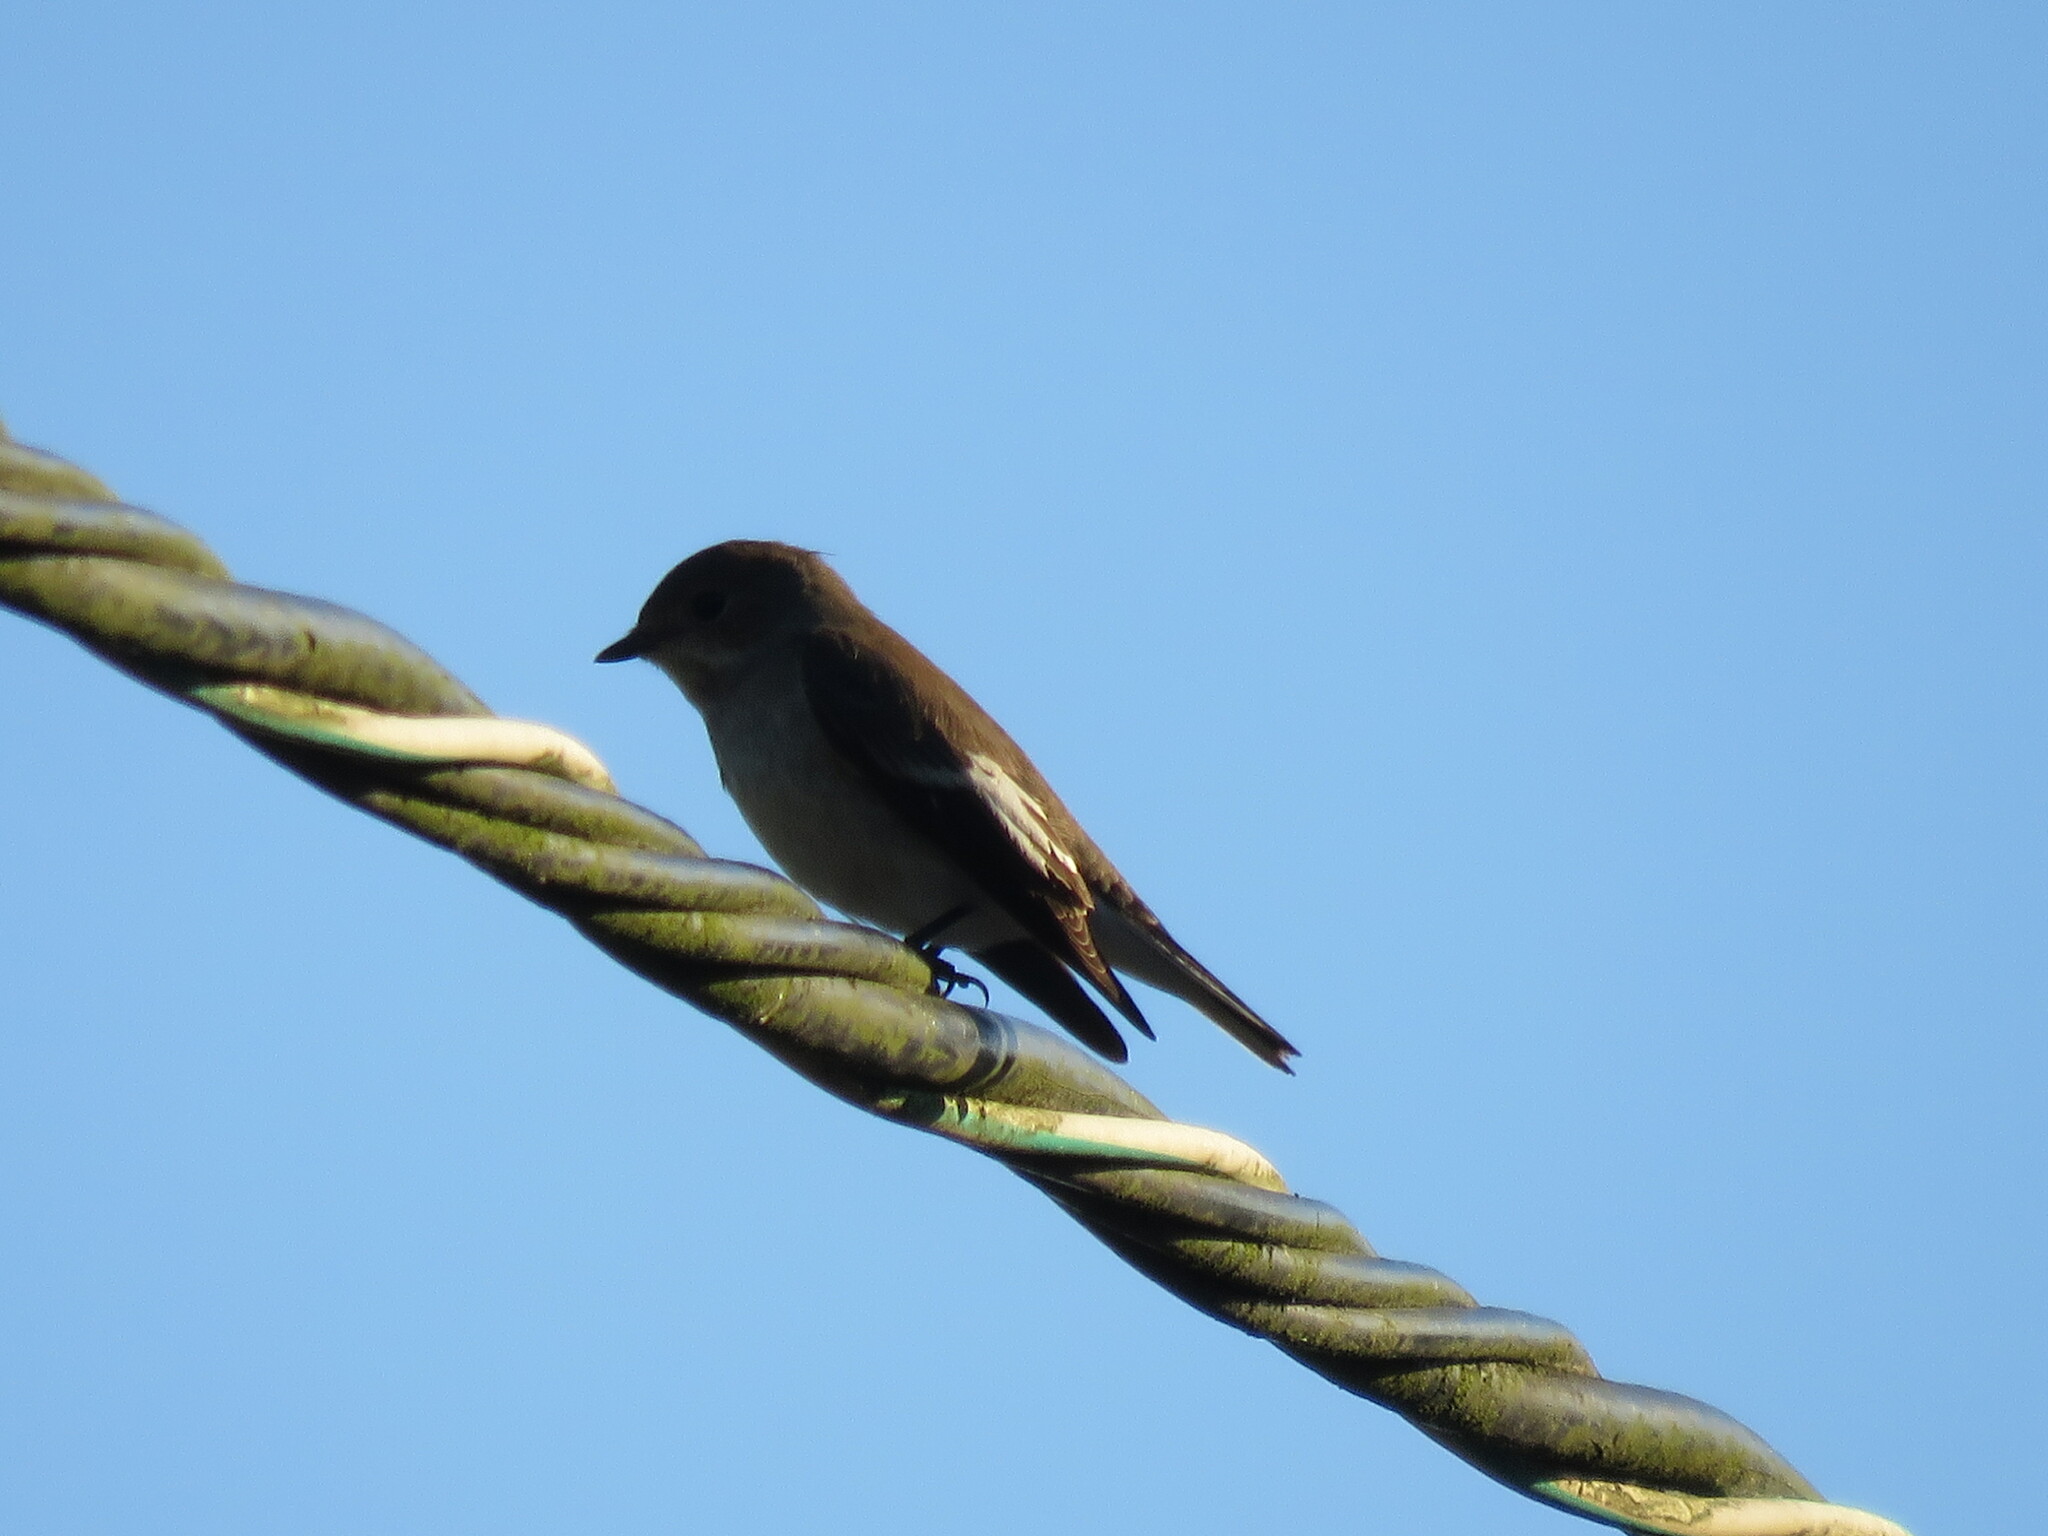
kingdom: Animalia
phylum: Chordata
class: Aves
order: Passeriformes
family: Muscicapidae
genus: Ficedula
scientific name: Ficedula hypoleuca
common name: European pied flycatcher
